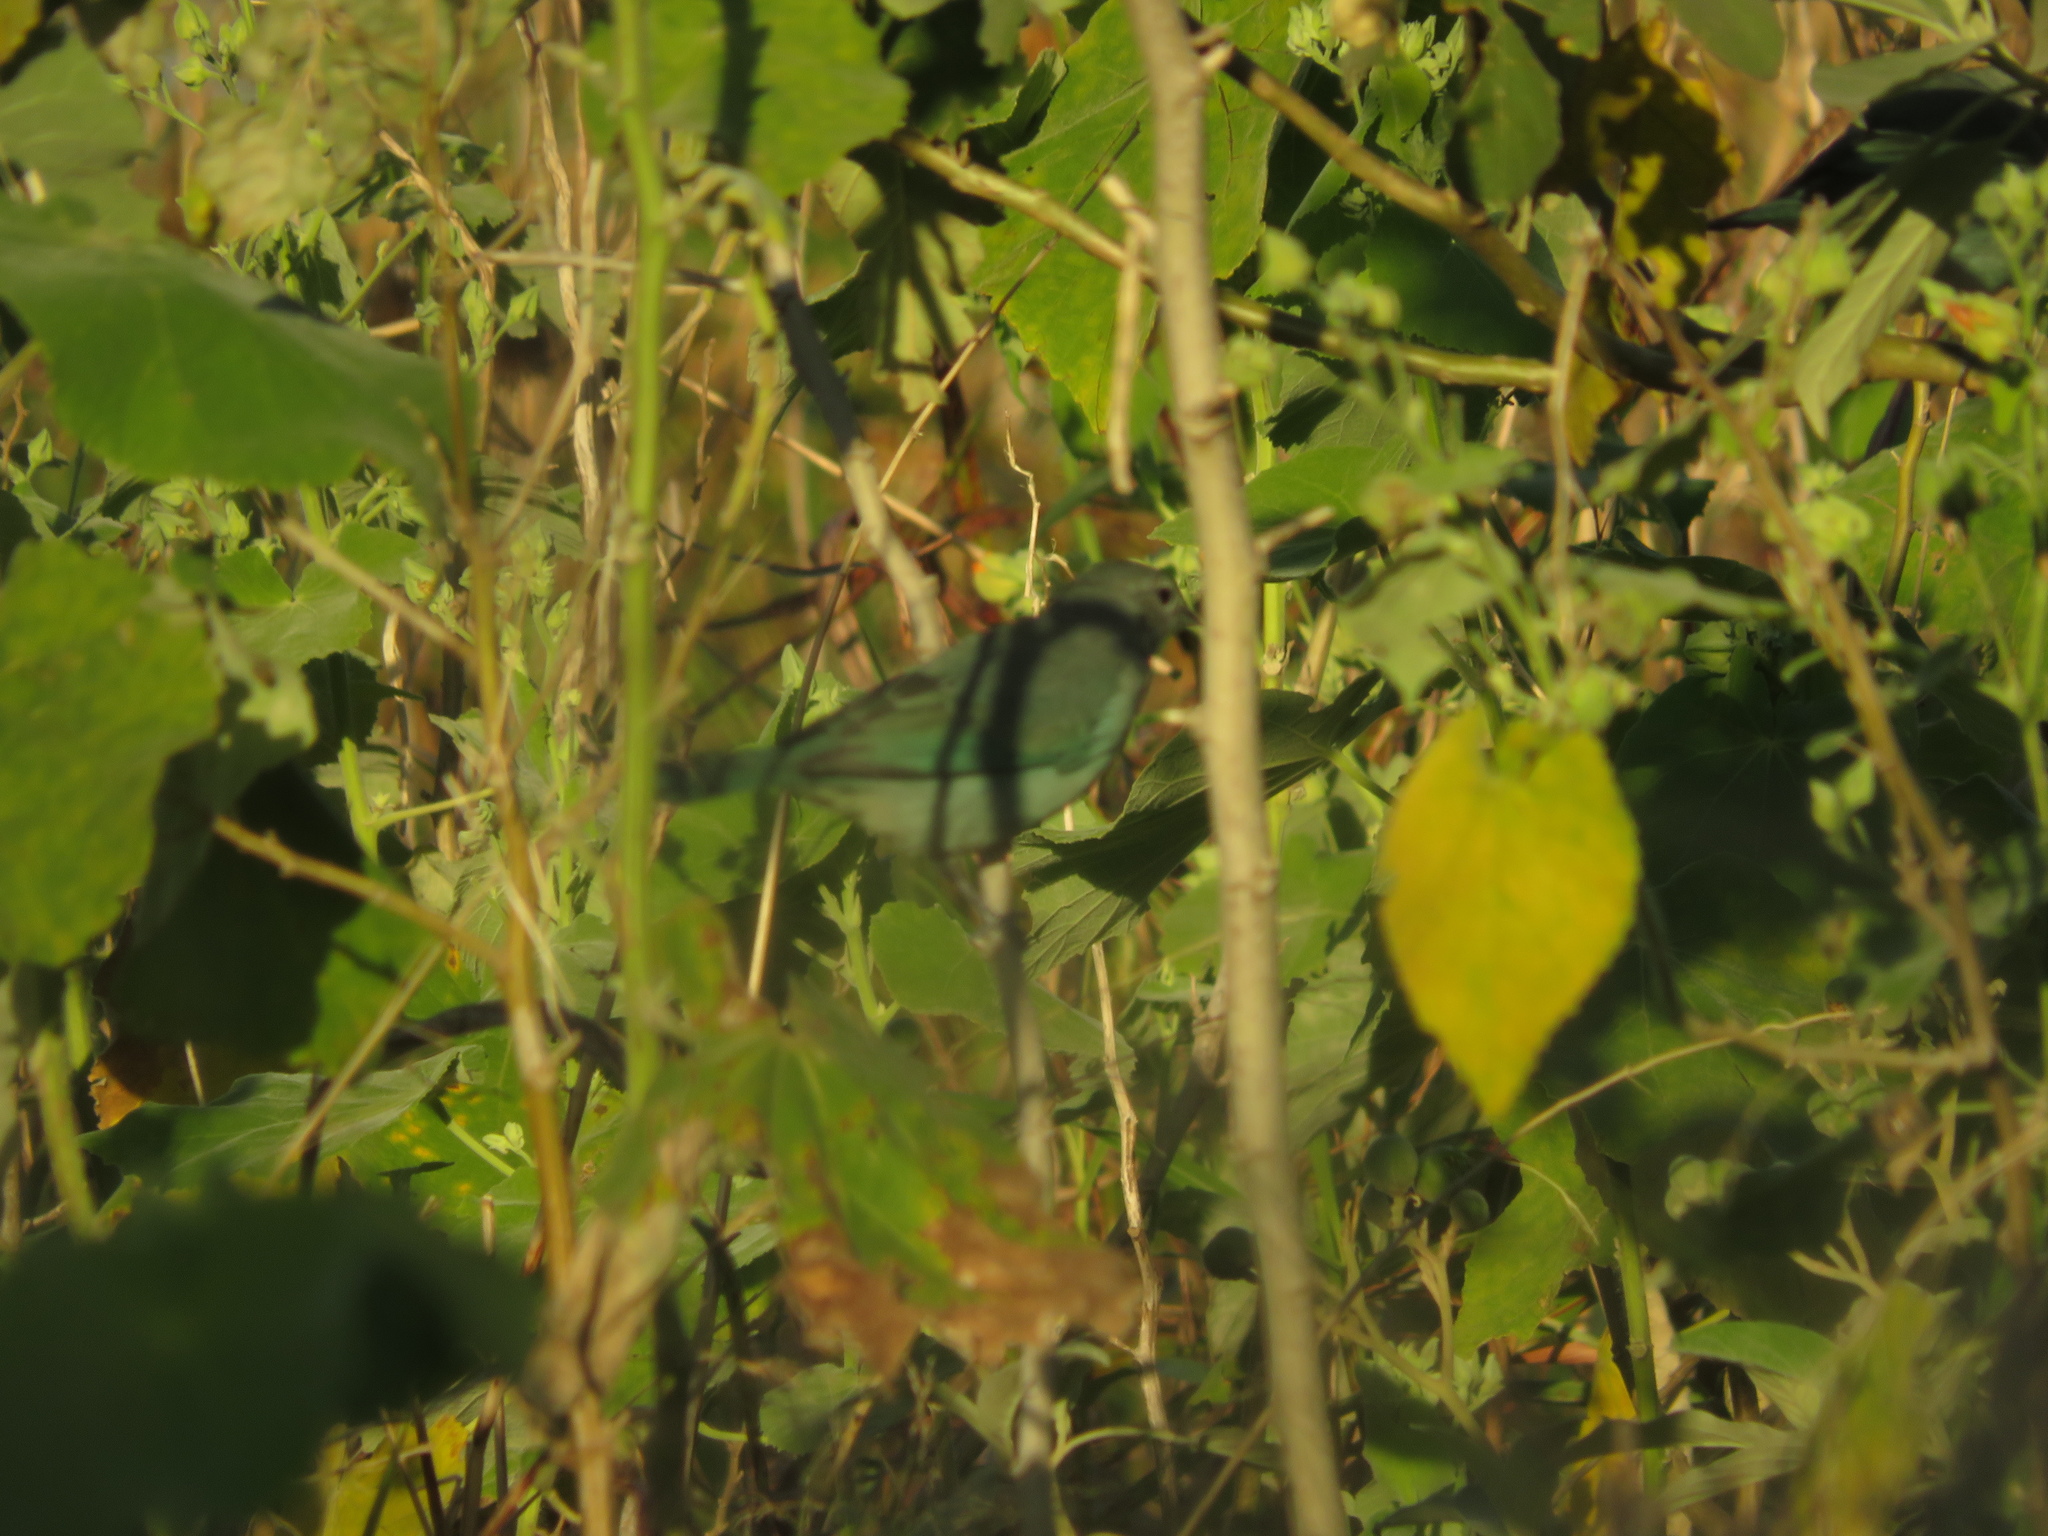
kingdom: Animalia
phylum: Chordata
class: Aves
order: Passeriformes
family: Thraupidae
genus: Thraupis
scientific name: Thraupis sayaca
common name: Sayaca tanager
